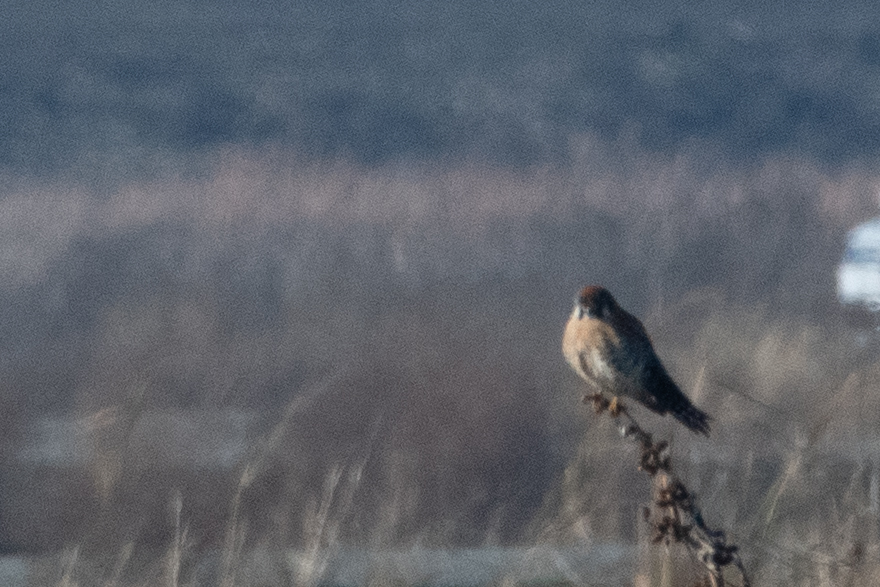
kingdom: Animalia
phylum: Chordata
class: Aves
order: Falconiformes
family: Falconidae
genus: Falco
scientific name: Falco sparverius
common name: American kestrel
